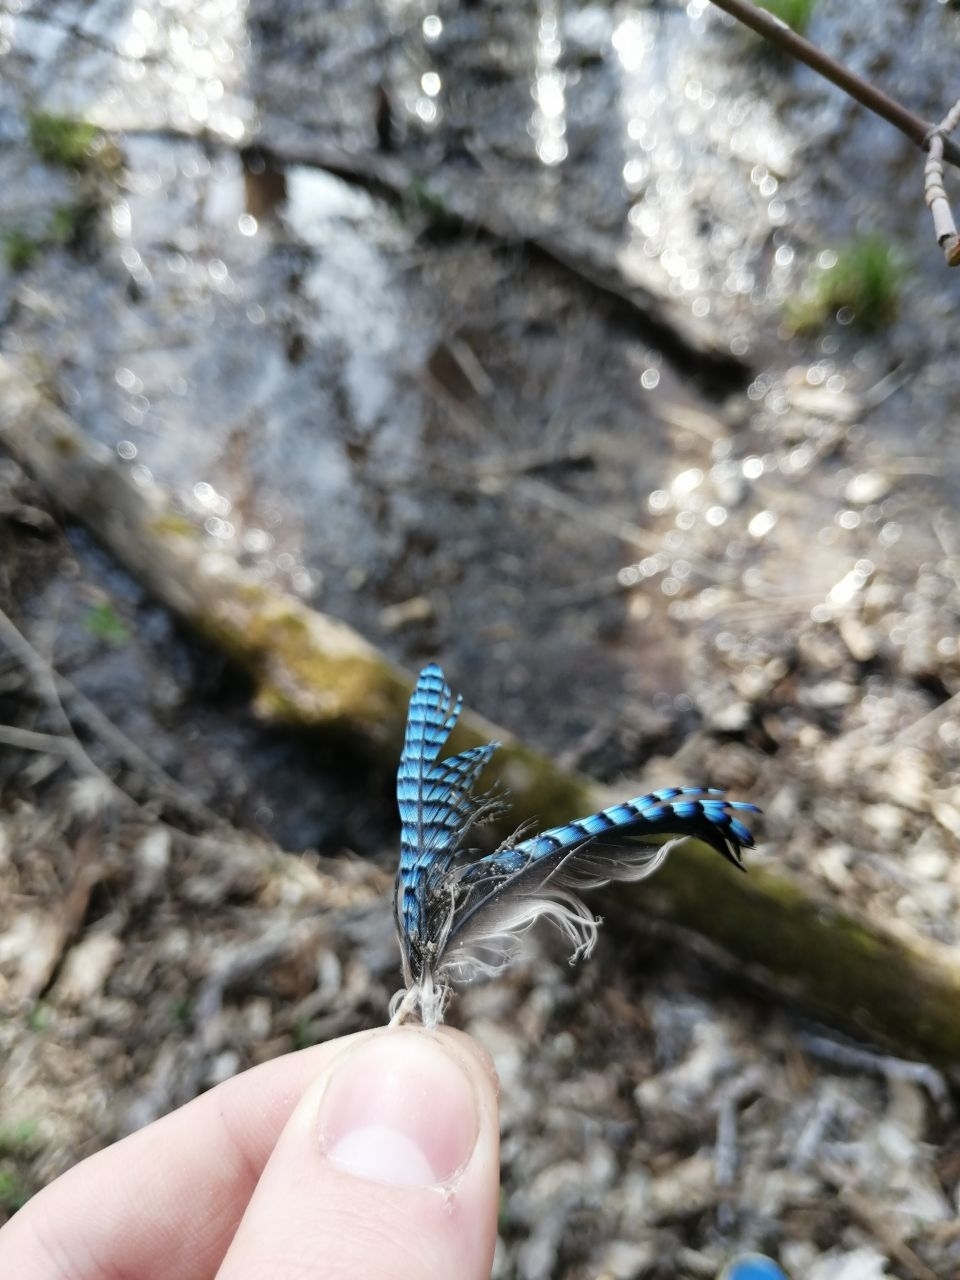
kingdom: Animalia
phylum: Chordata
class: Aves
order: Passeriformes
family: Corvidae
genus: Garrulus
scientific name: Garrulus glandarius
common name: Eurasian jay
